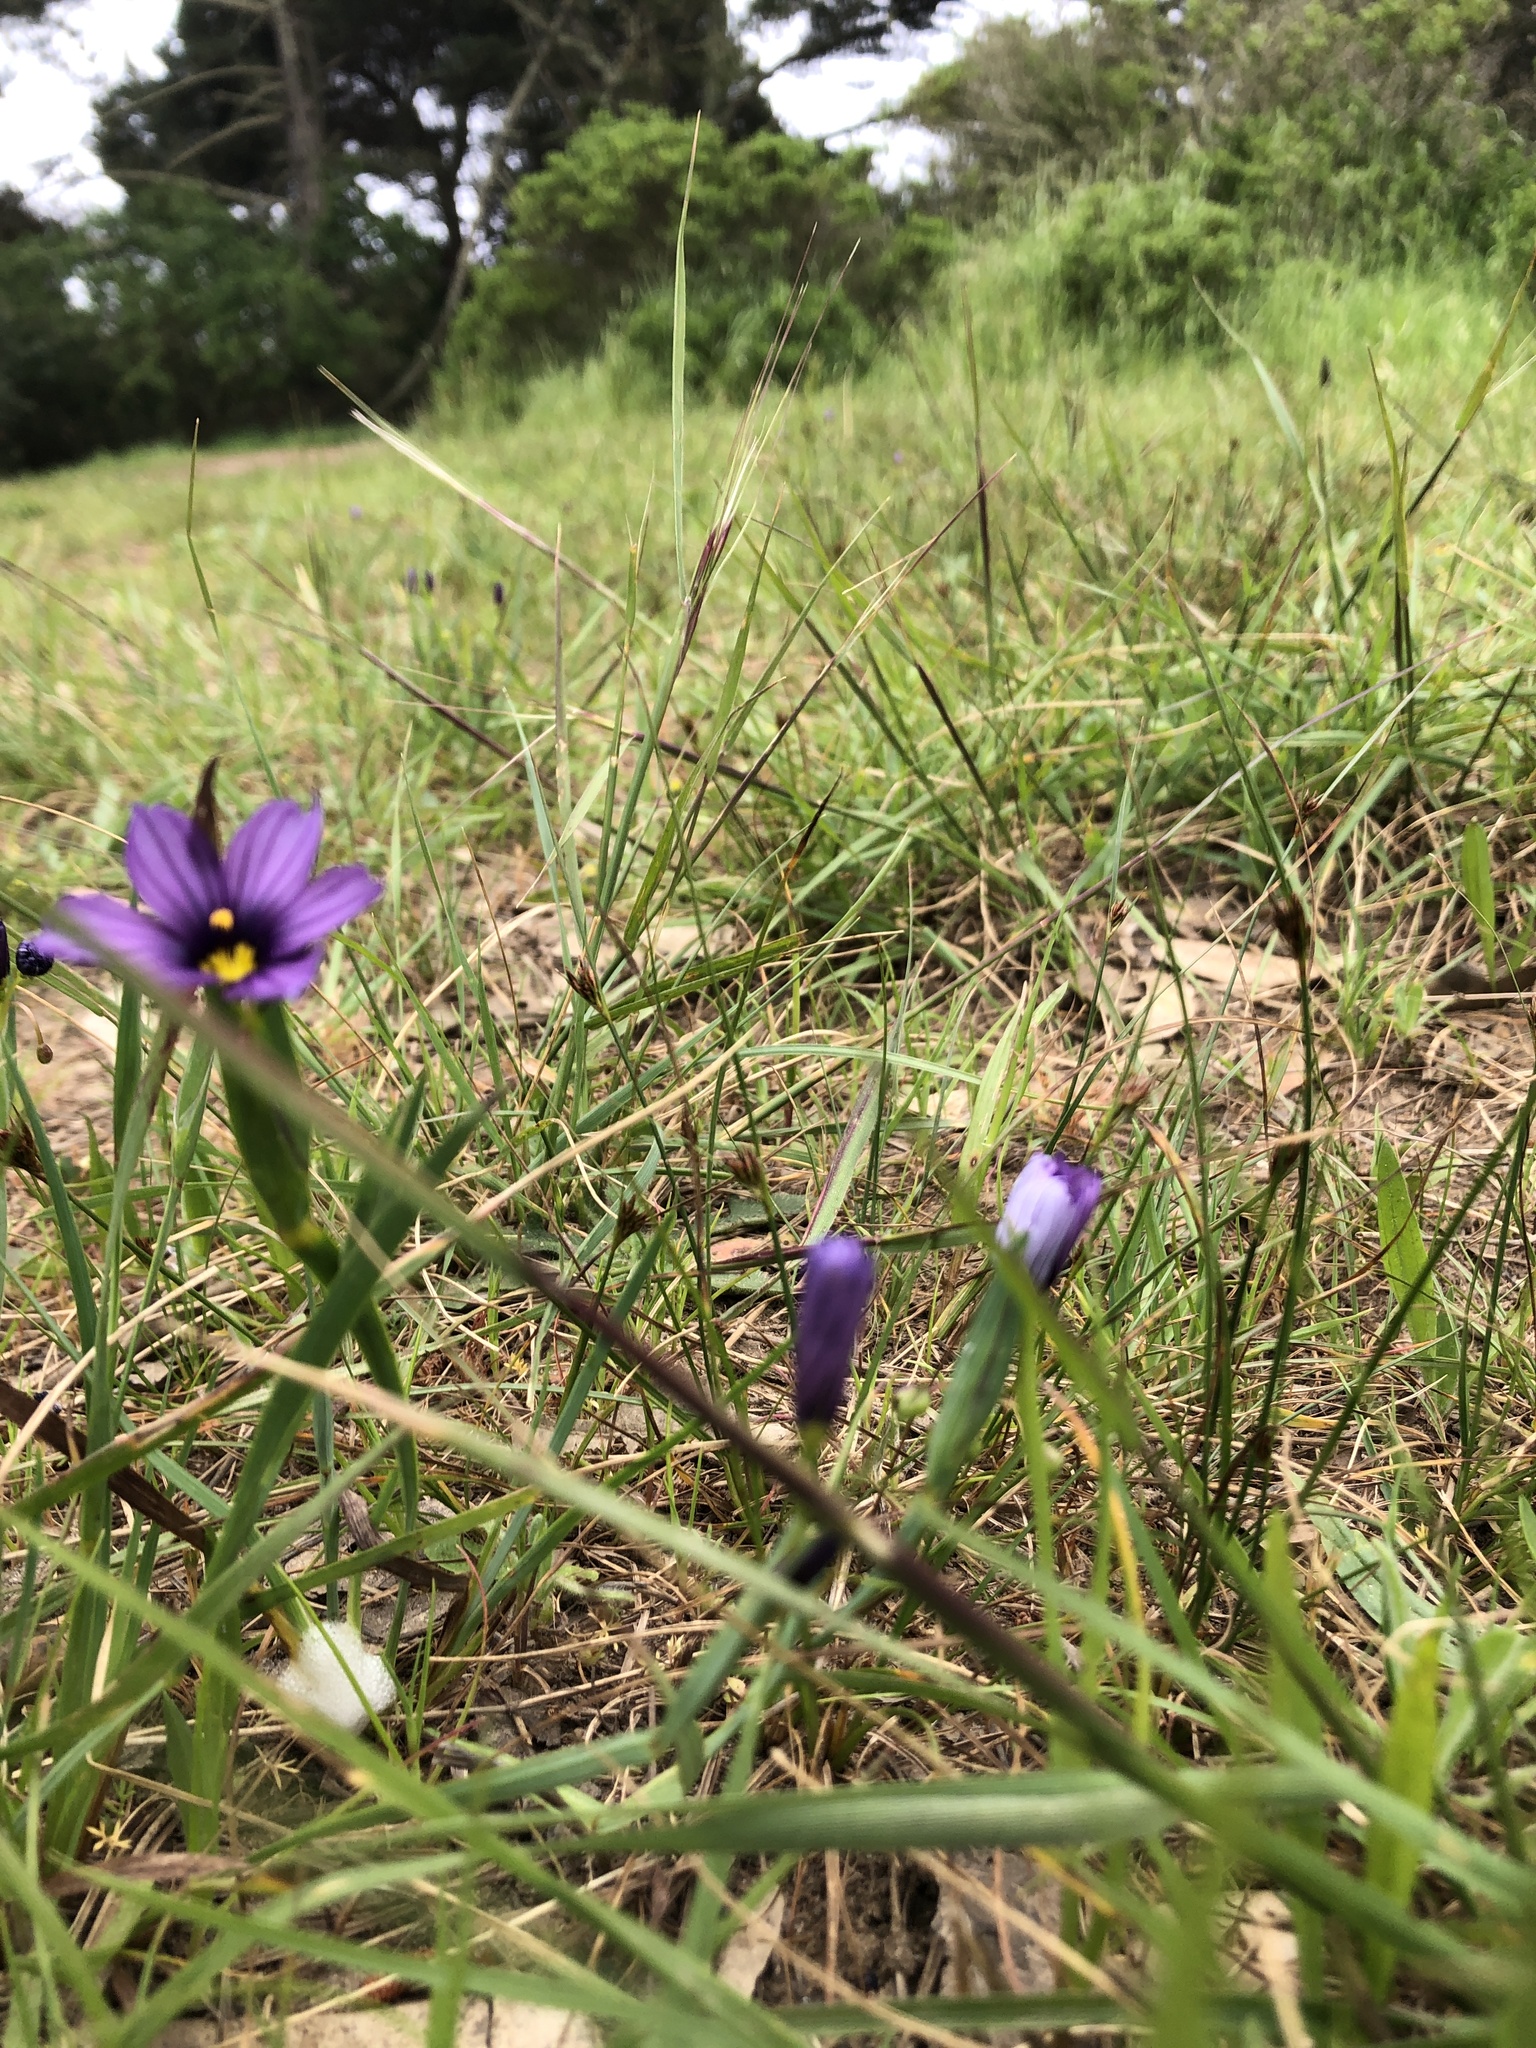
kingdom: Plantae
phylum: Tracheophyta
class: Liliopsida
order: Asparagales
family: Iridaceae
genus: Sisyrinchium
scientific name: Sisyrinchium bellum
